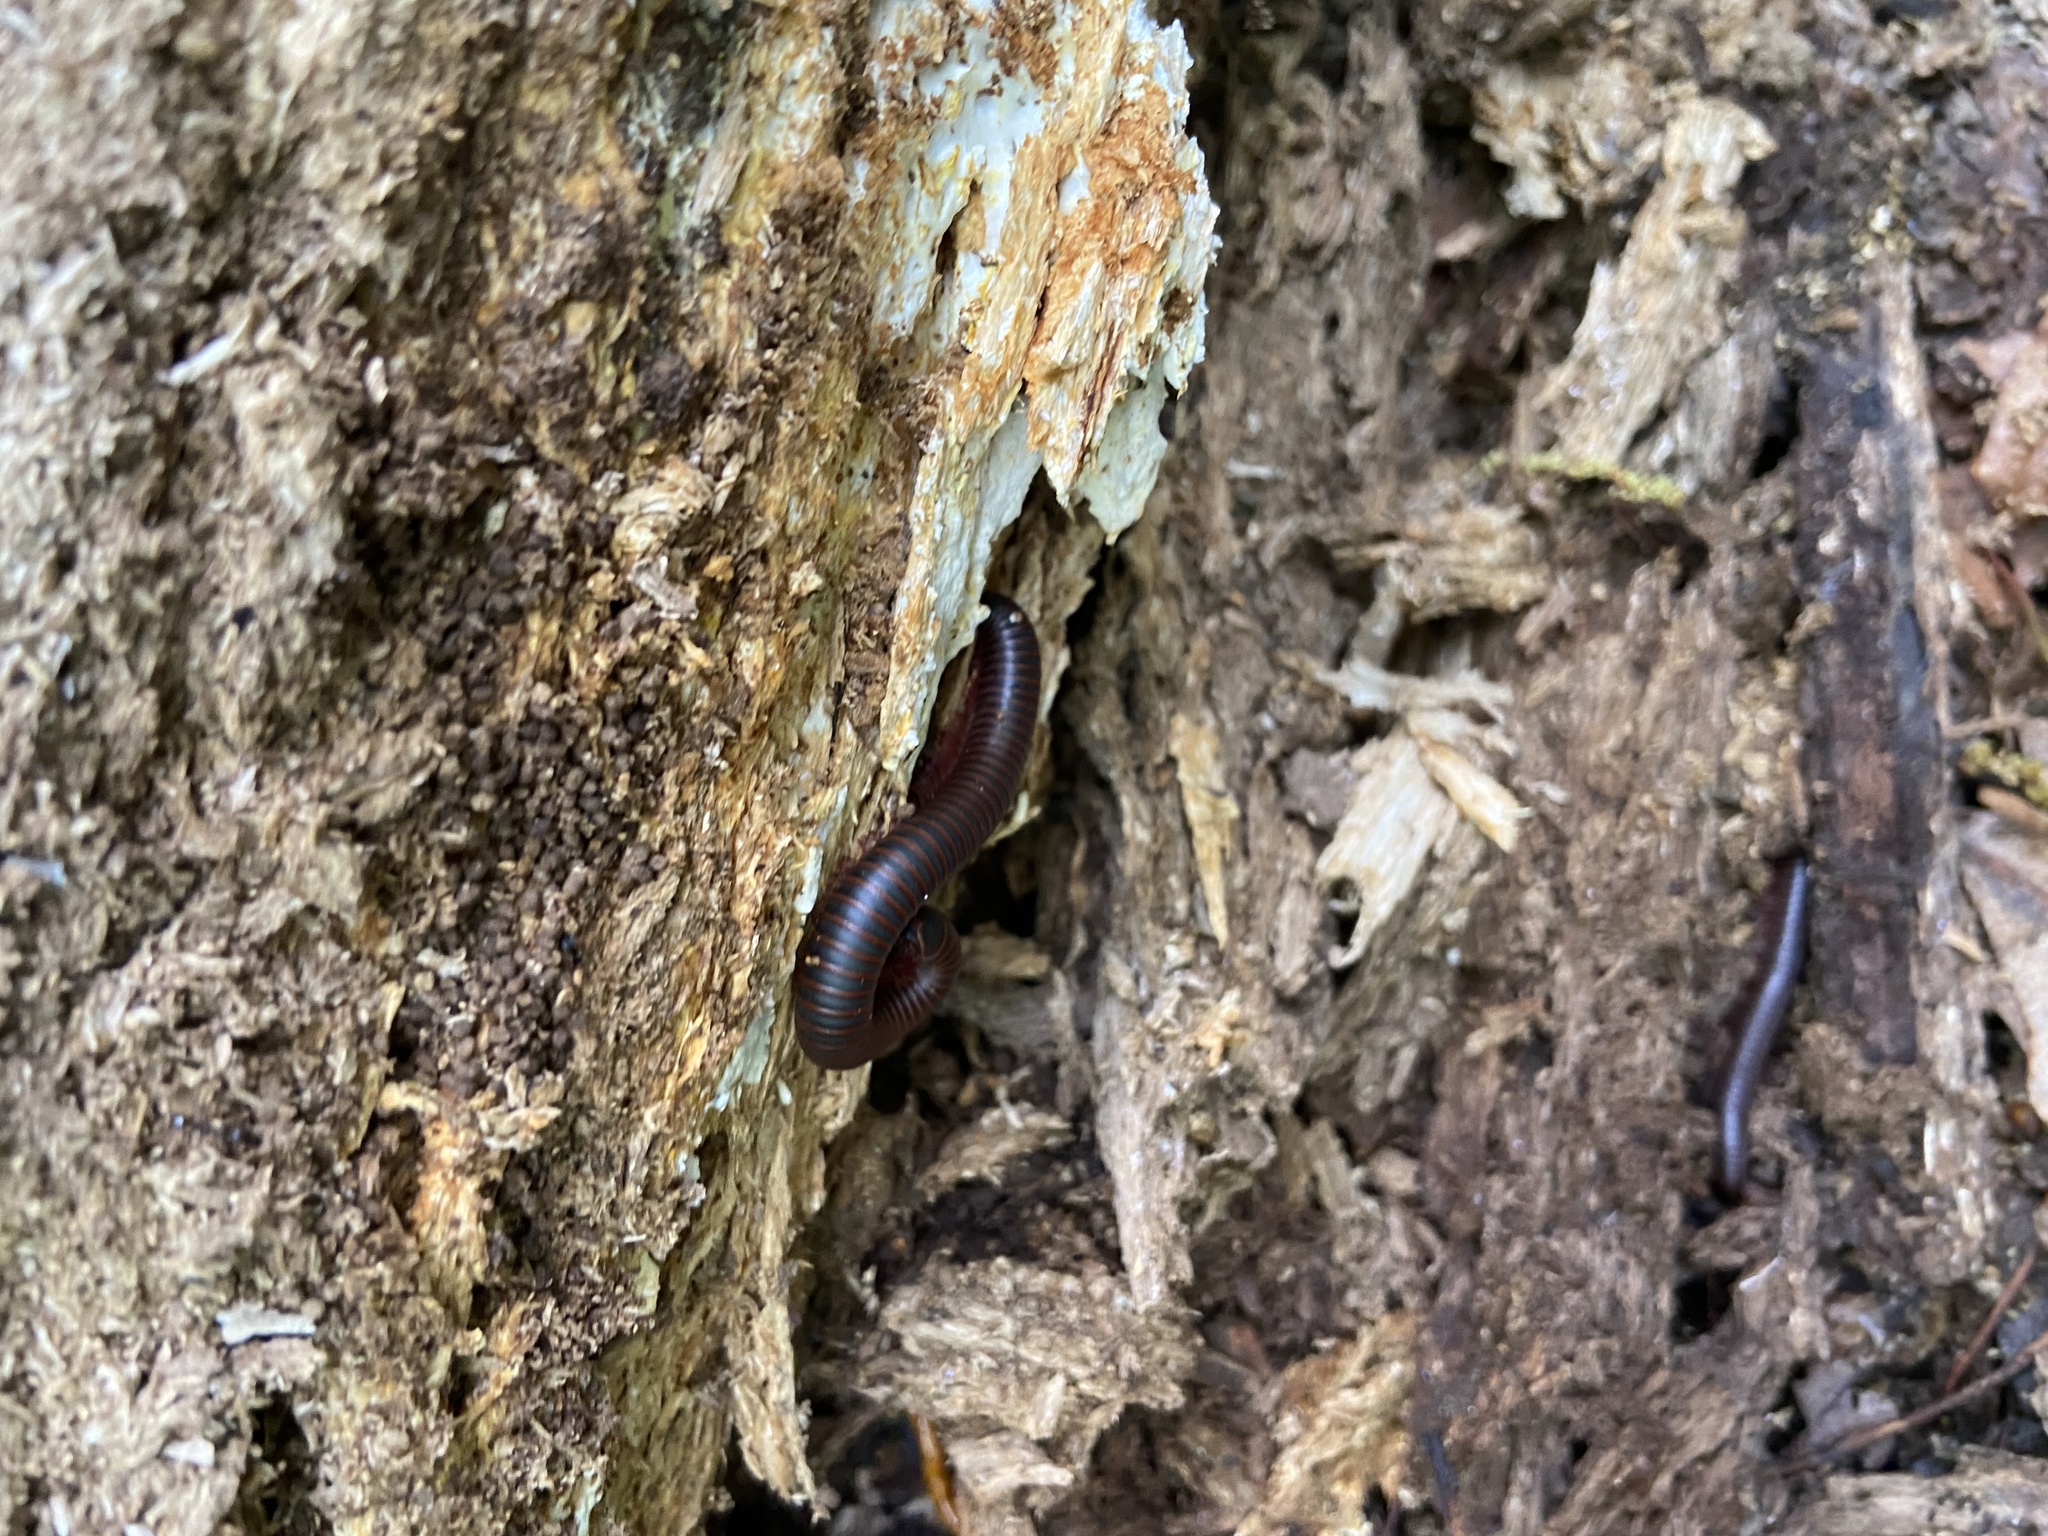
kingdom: Animalia
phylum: Arthropoda
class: Diplopoda
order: Spirobolida
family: Spirobolidae
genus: Narceus
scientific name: Narceus
